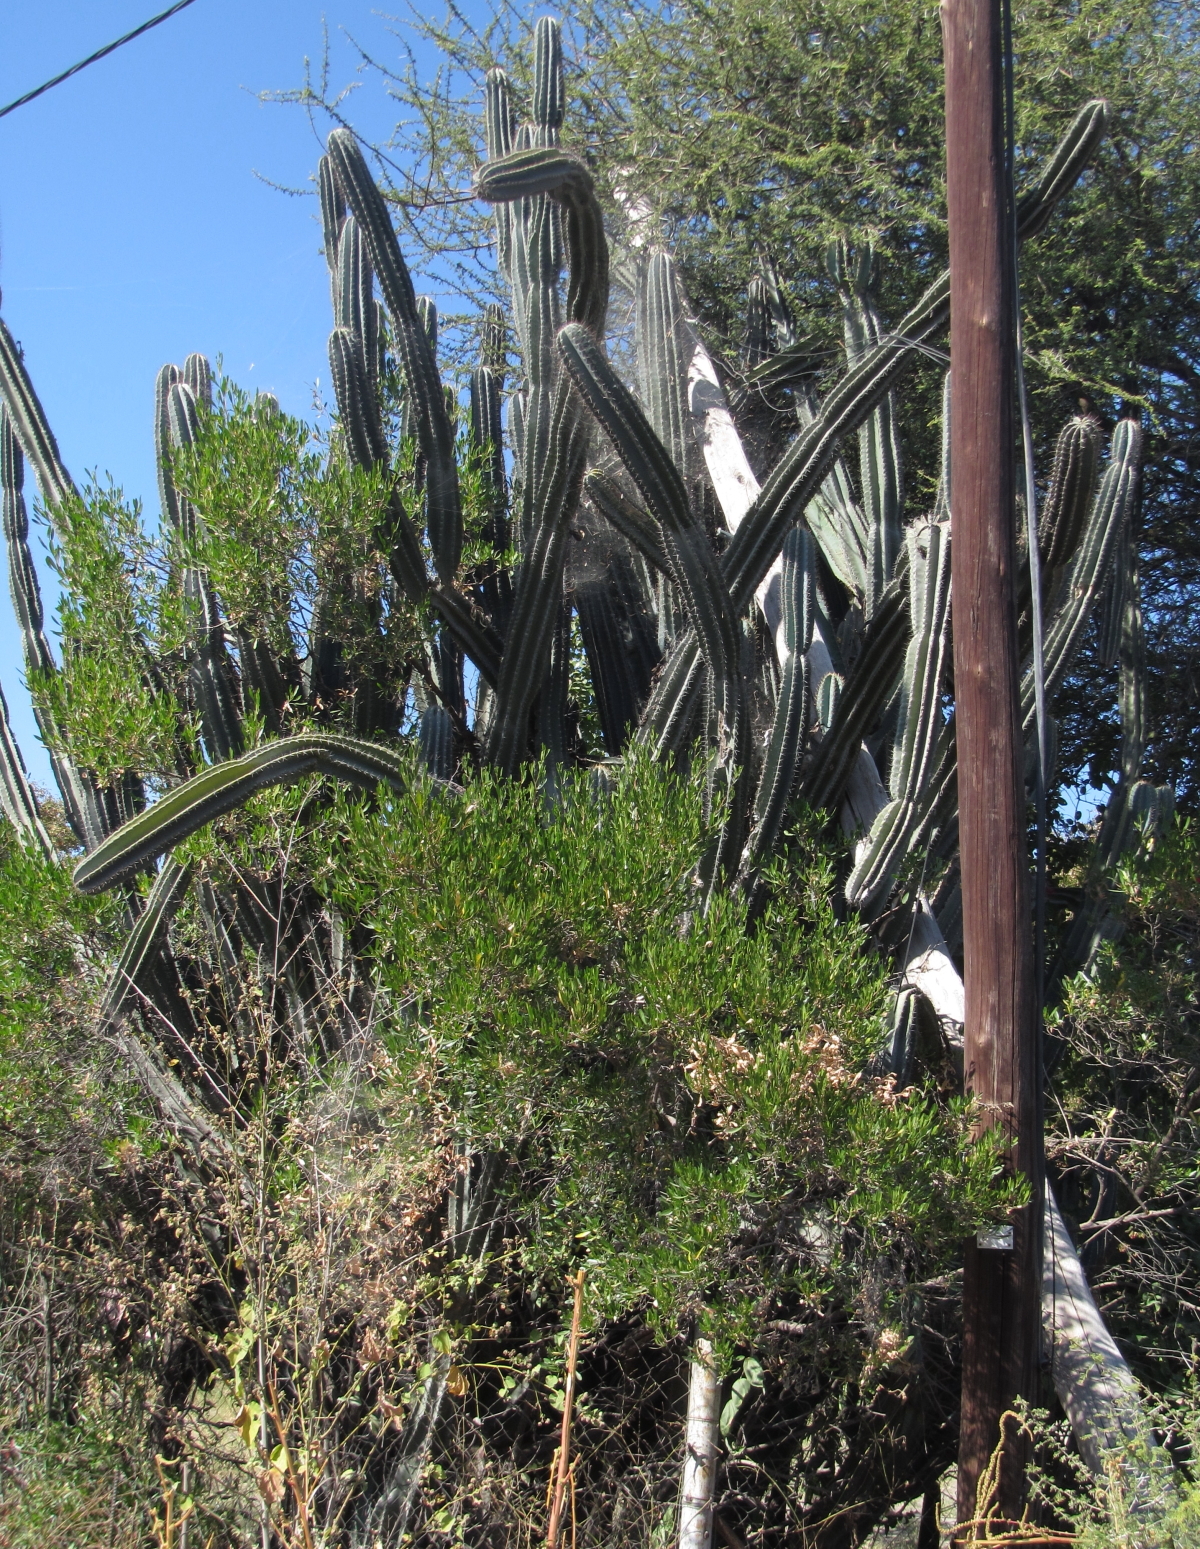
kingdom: Plantae
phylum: Tracheophyta
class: Magnoliopsida
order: Caryophyllales
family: Cactaceae
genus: Cereus
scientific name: Cereus jamacaru
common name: Queen-of-the-night
